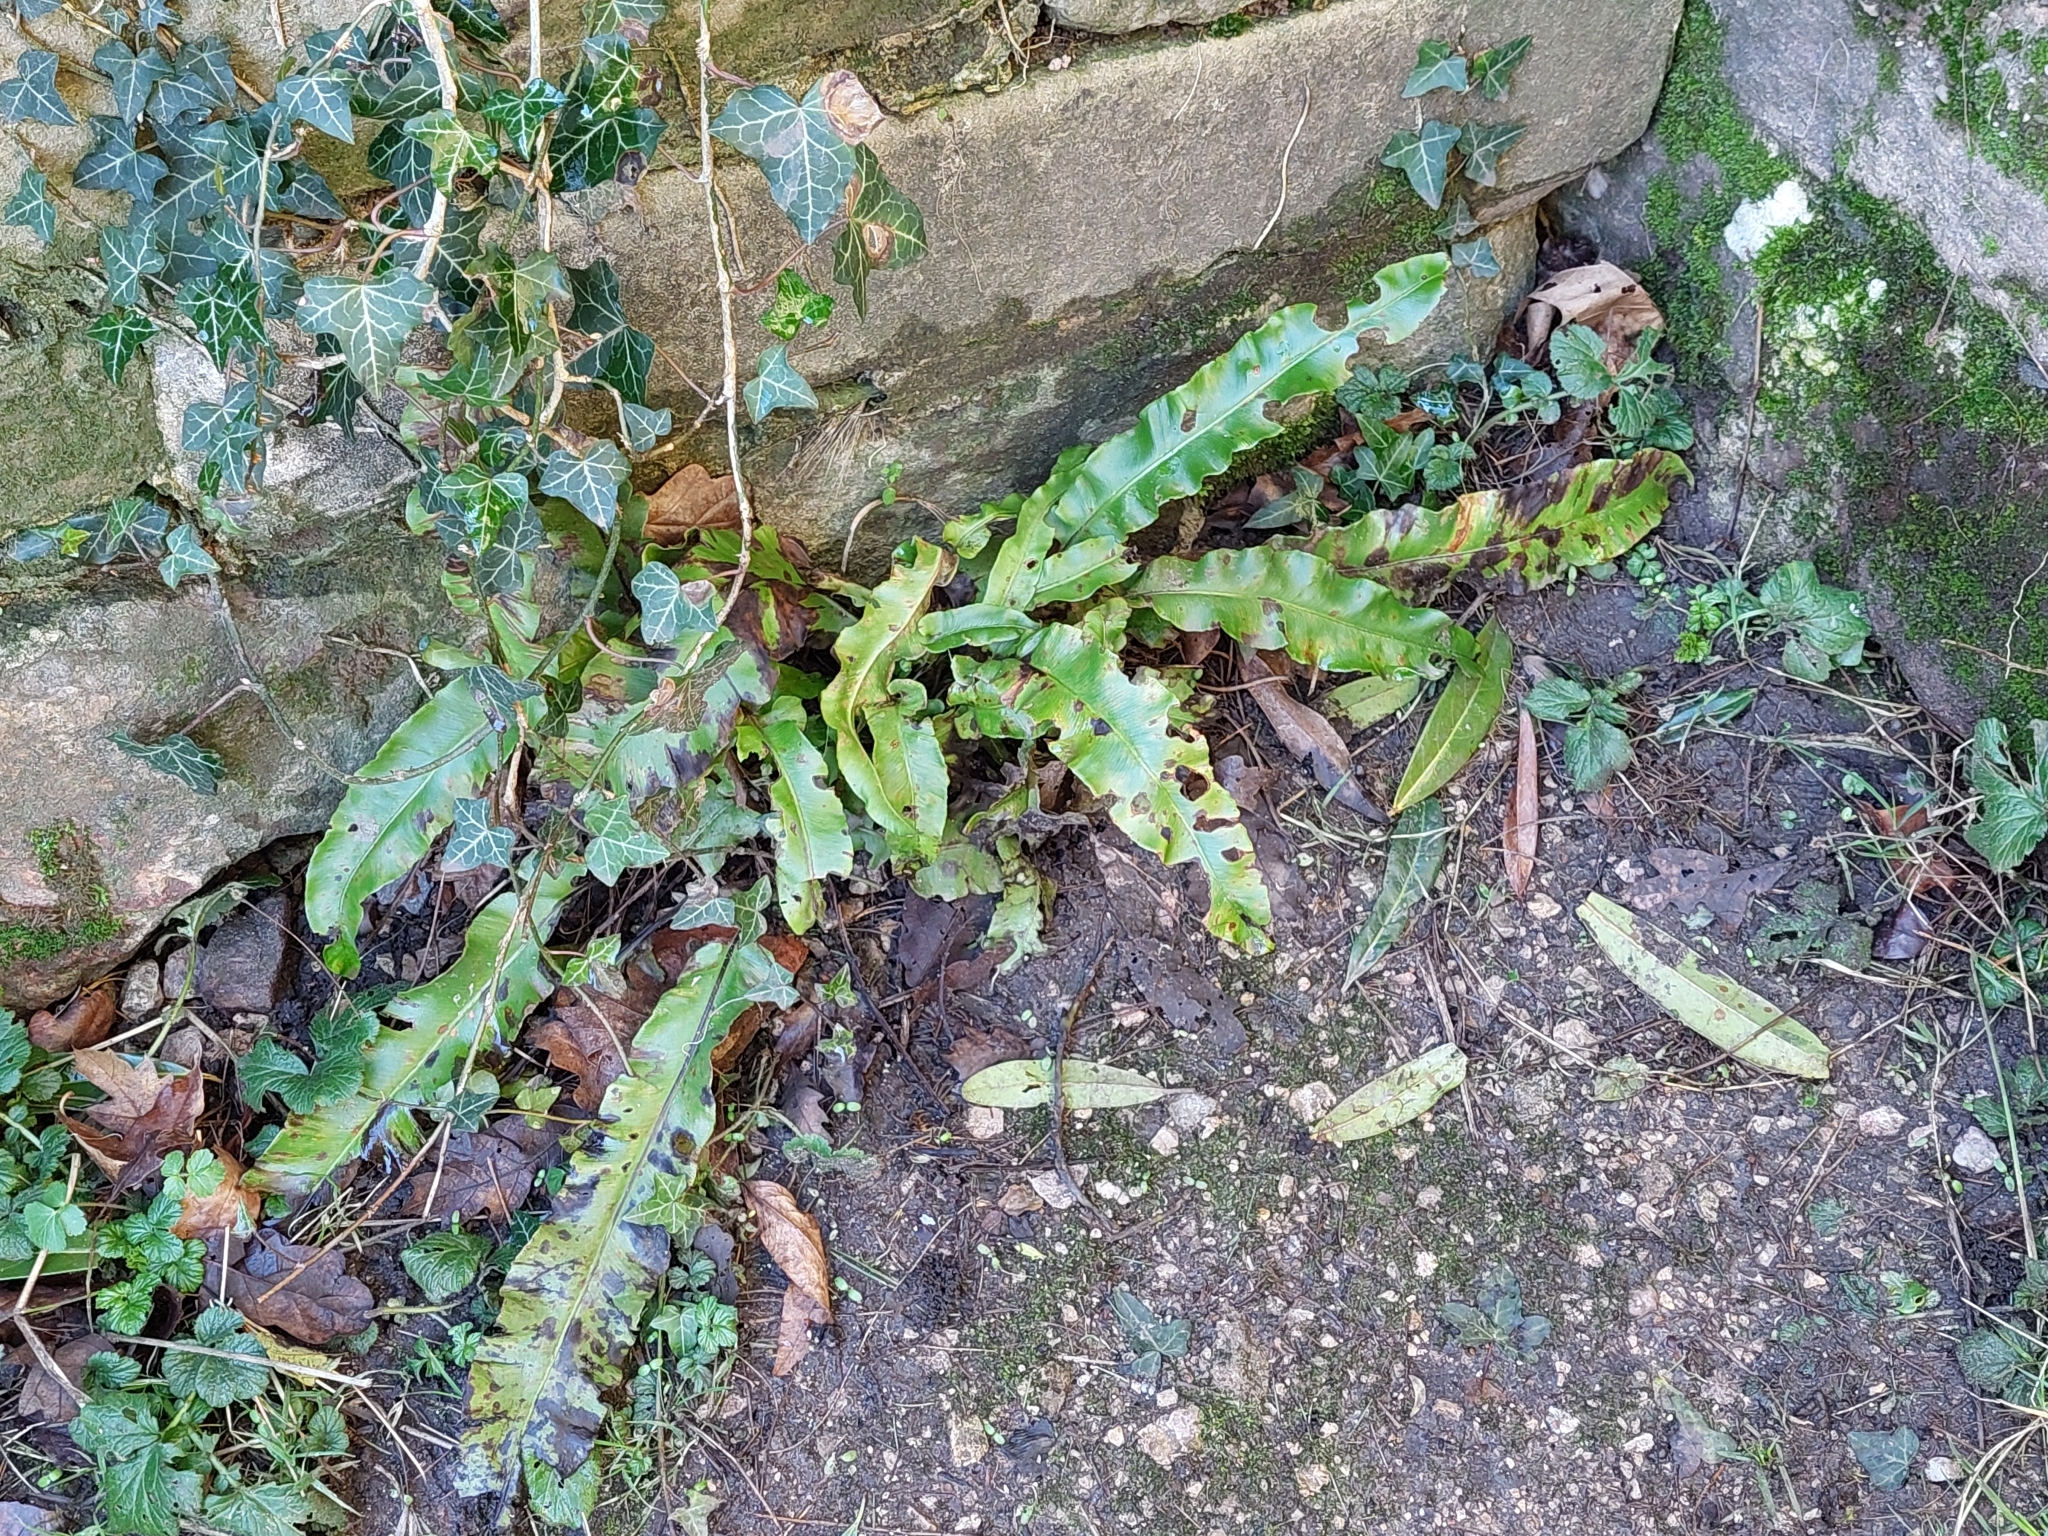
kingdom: Plantae
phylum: Tracheophyta
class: Polypodiopsida
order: Polypodiales
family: Aspleniaceae
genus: Asplenium
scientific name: Asplenium scolopendrium
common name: Hart's-tongue fern
